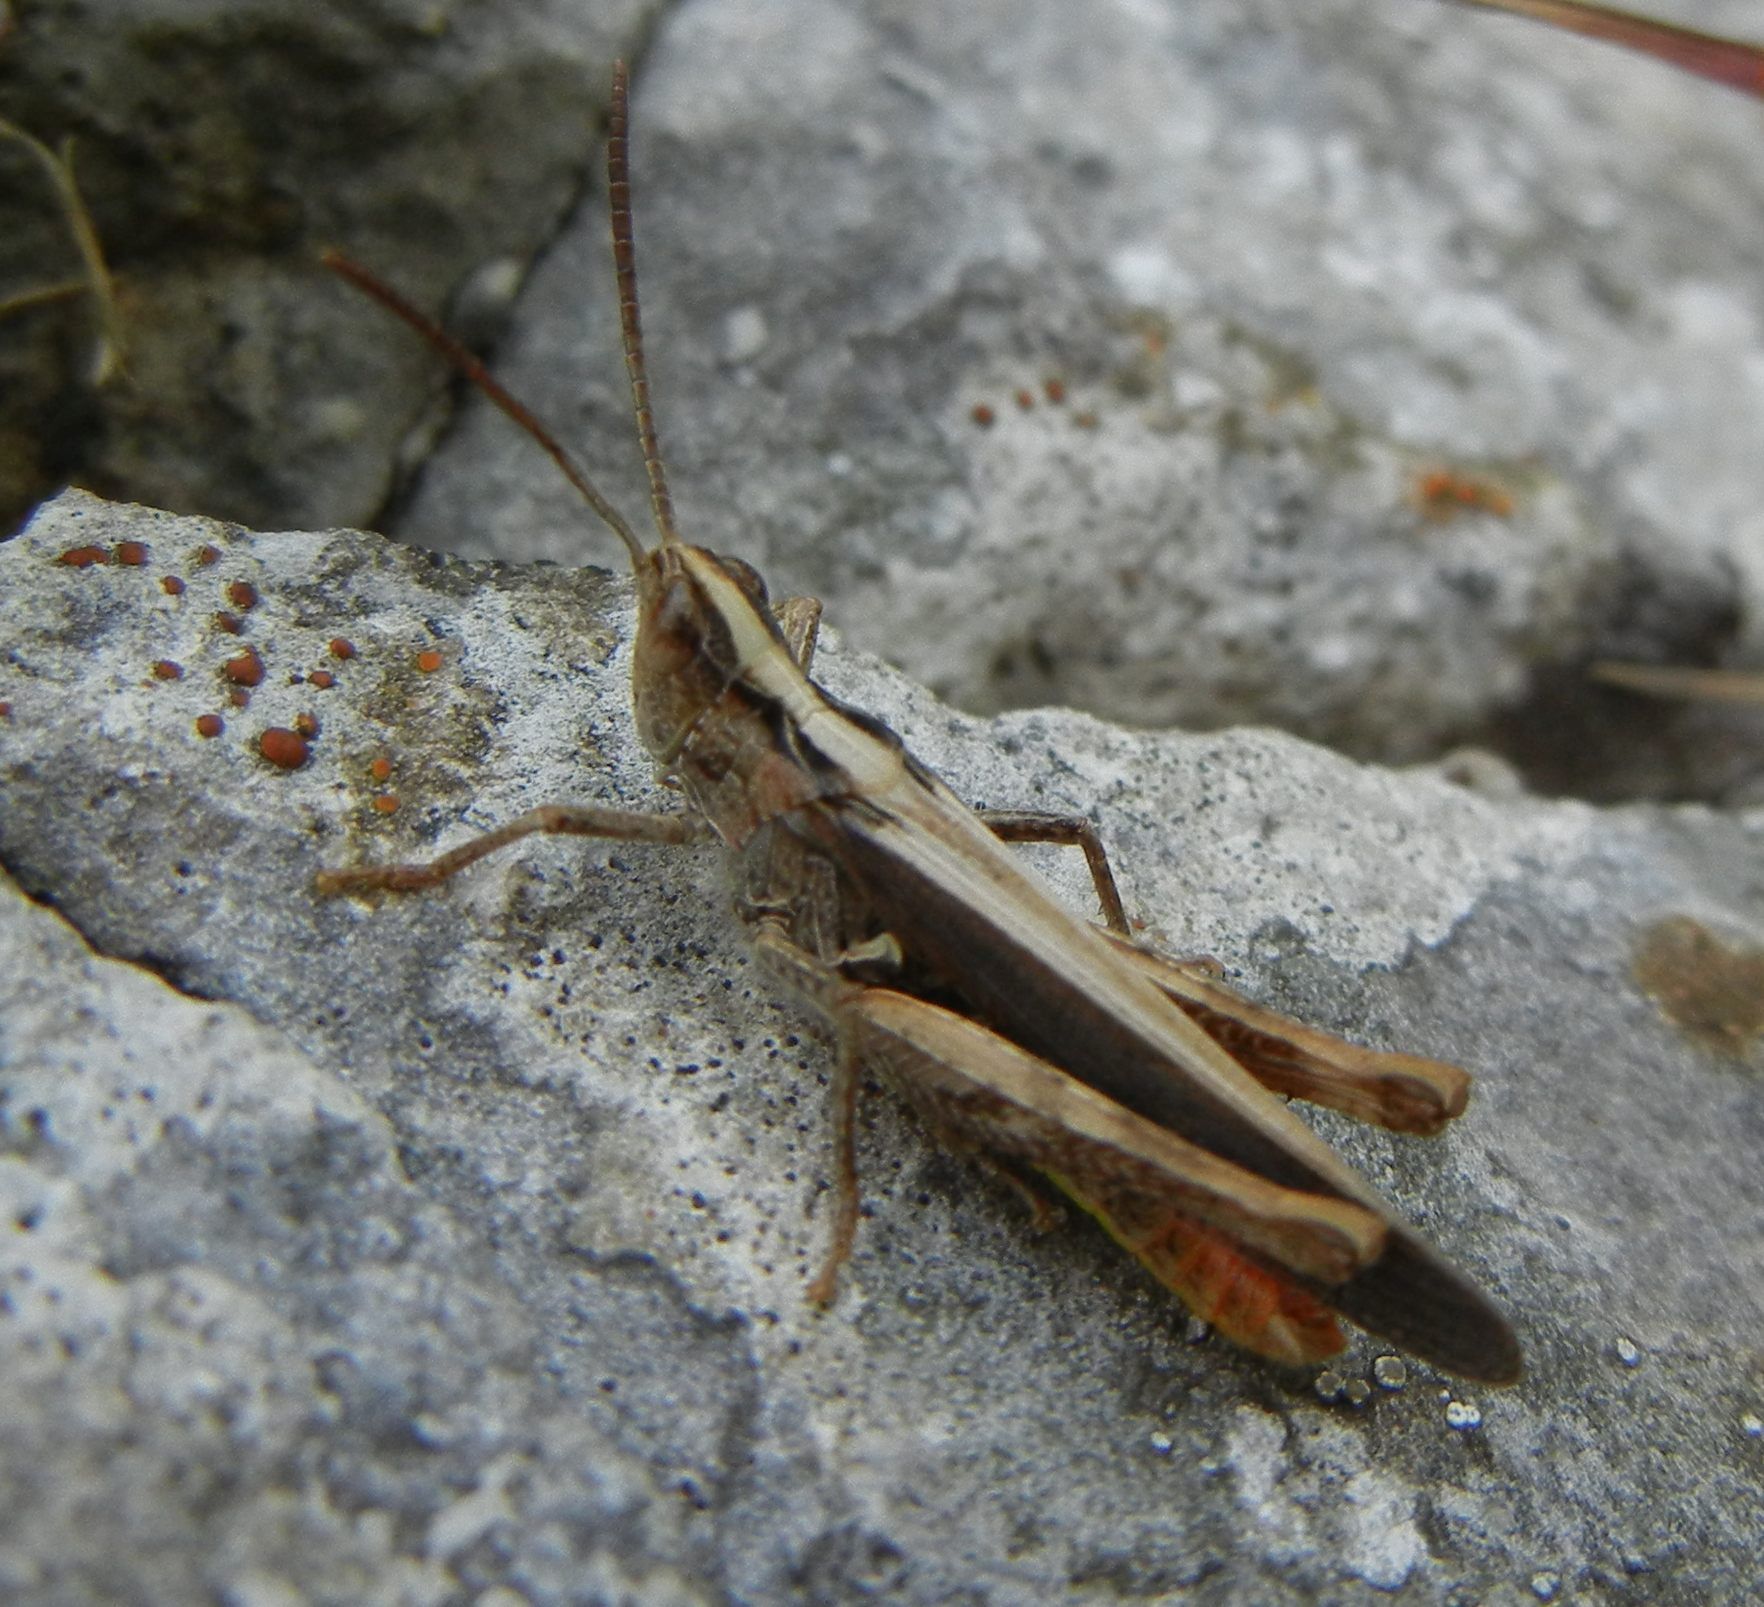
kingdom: Animalia
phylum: Arthropoda
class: Insecta
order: Orthoptera
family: Acrididae
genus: Chorthippus
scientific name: Chorthippus brunneus
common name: Field grasshopper
